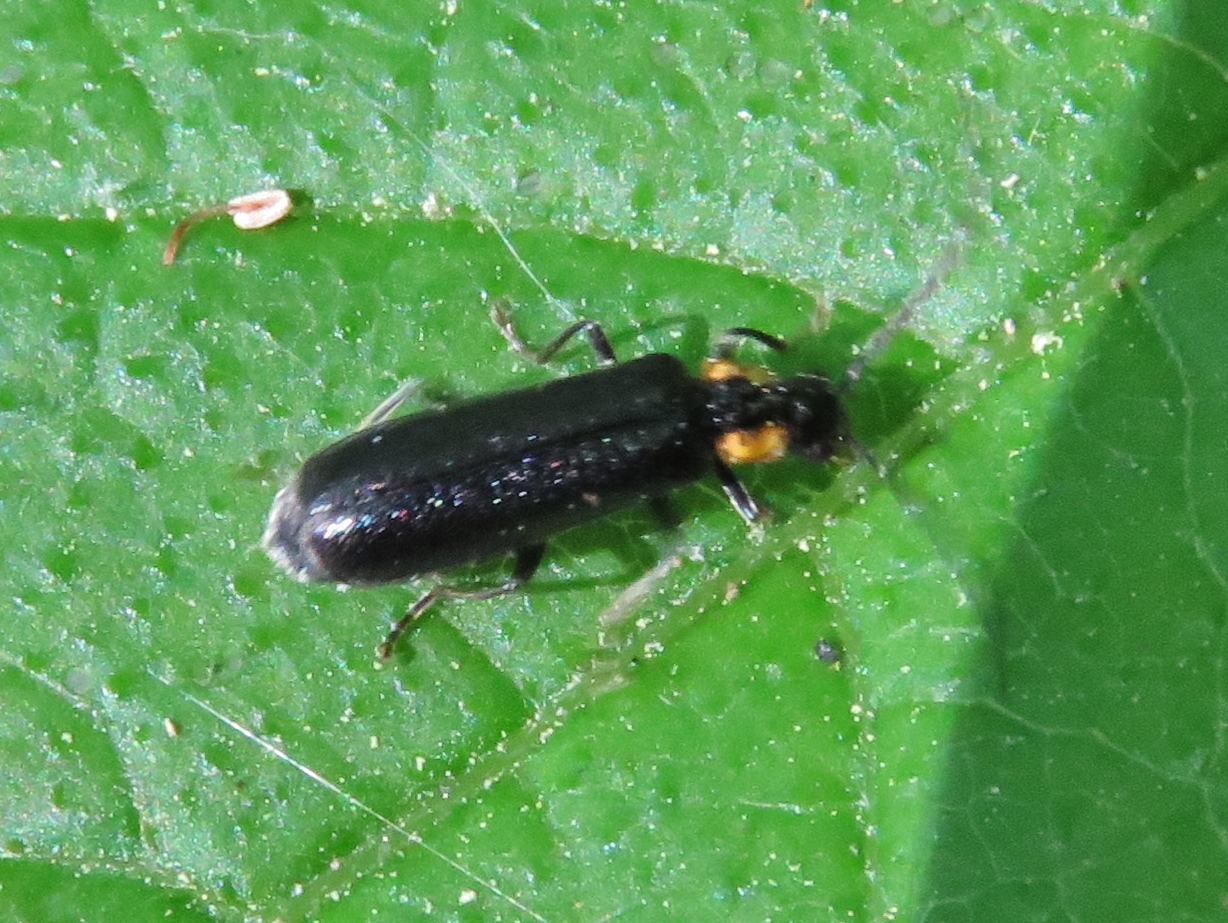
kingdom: Animalia
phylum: Arthropoda
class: Insecta
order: Coleoptera
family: Cantharidae
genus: Rhagonycha
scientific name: Rhagonycha lineola
